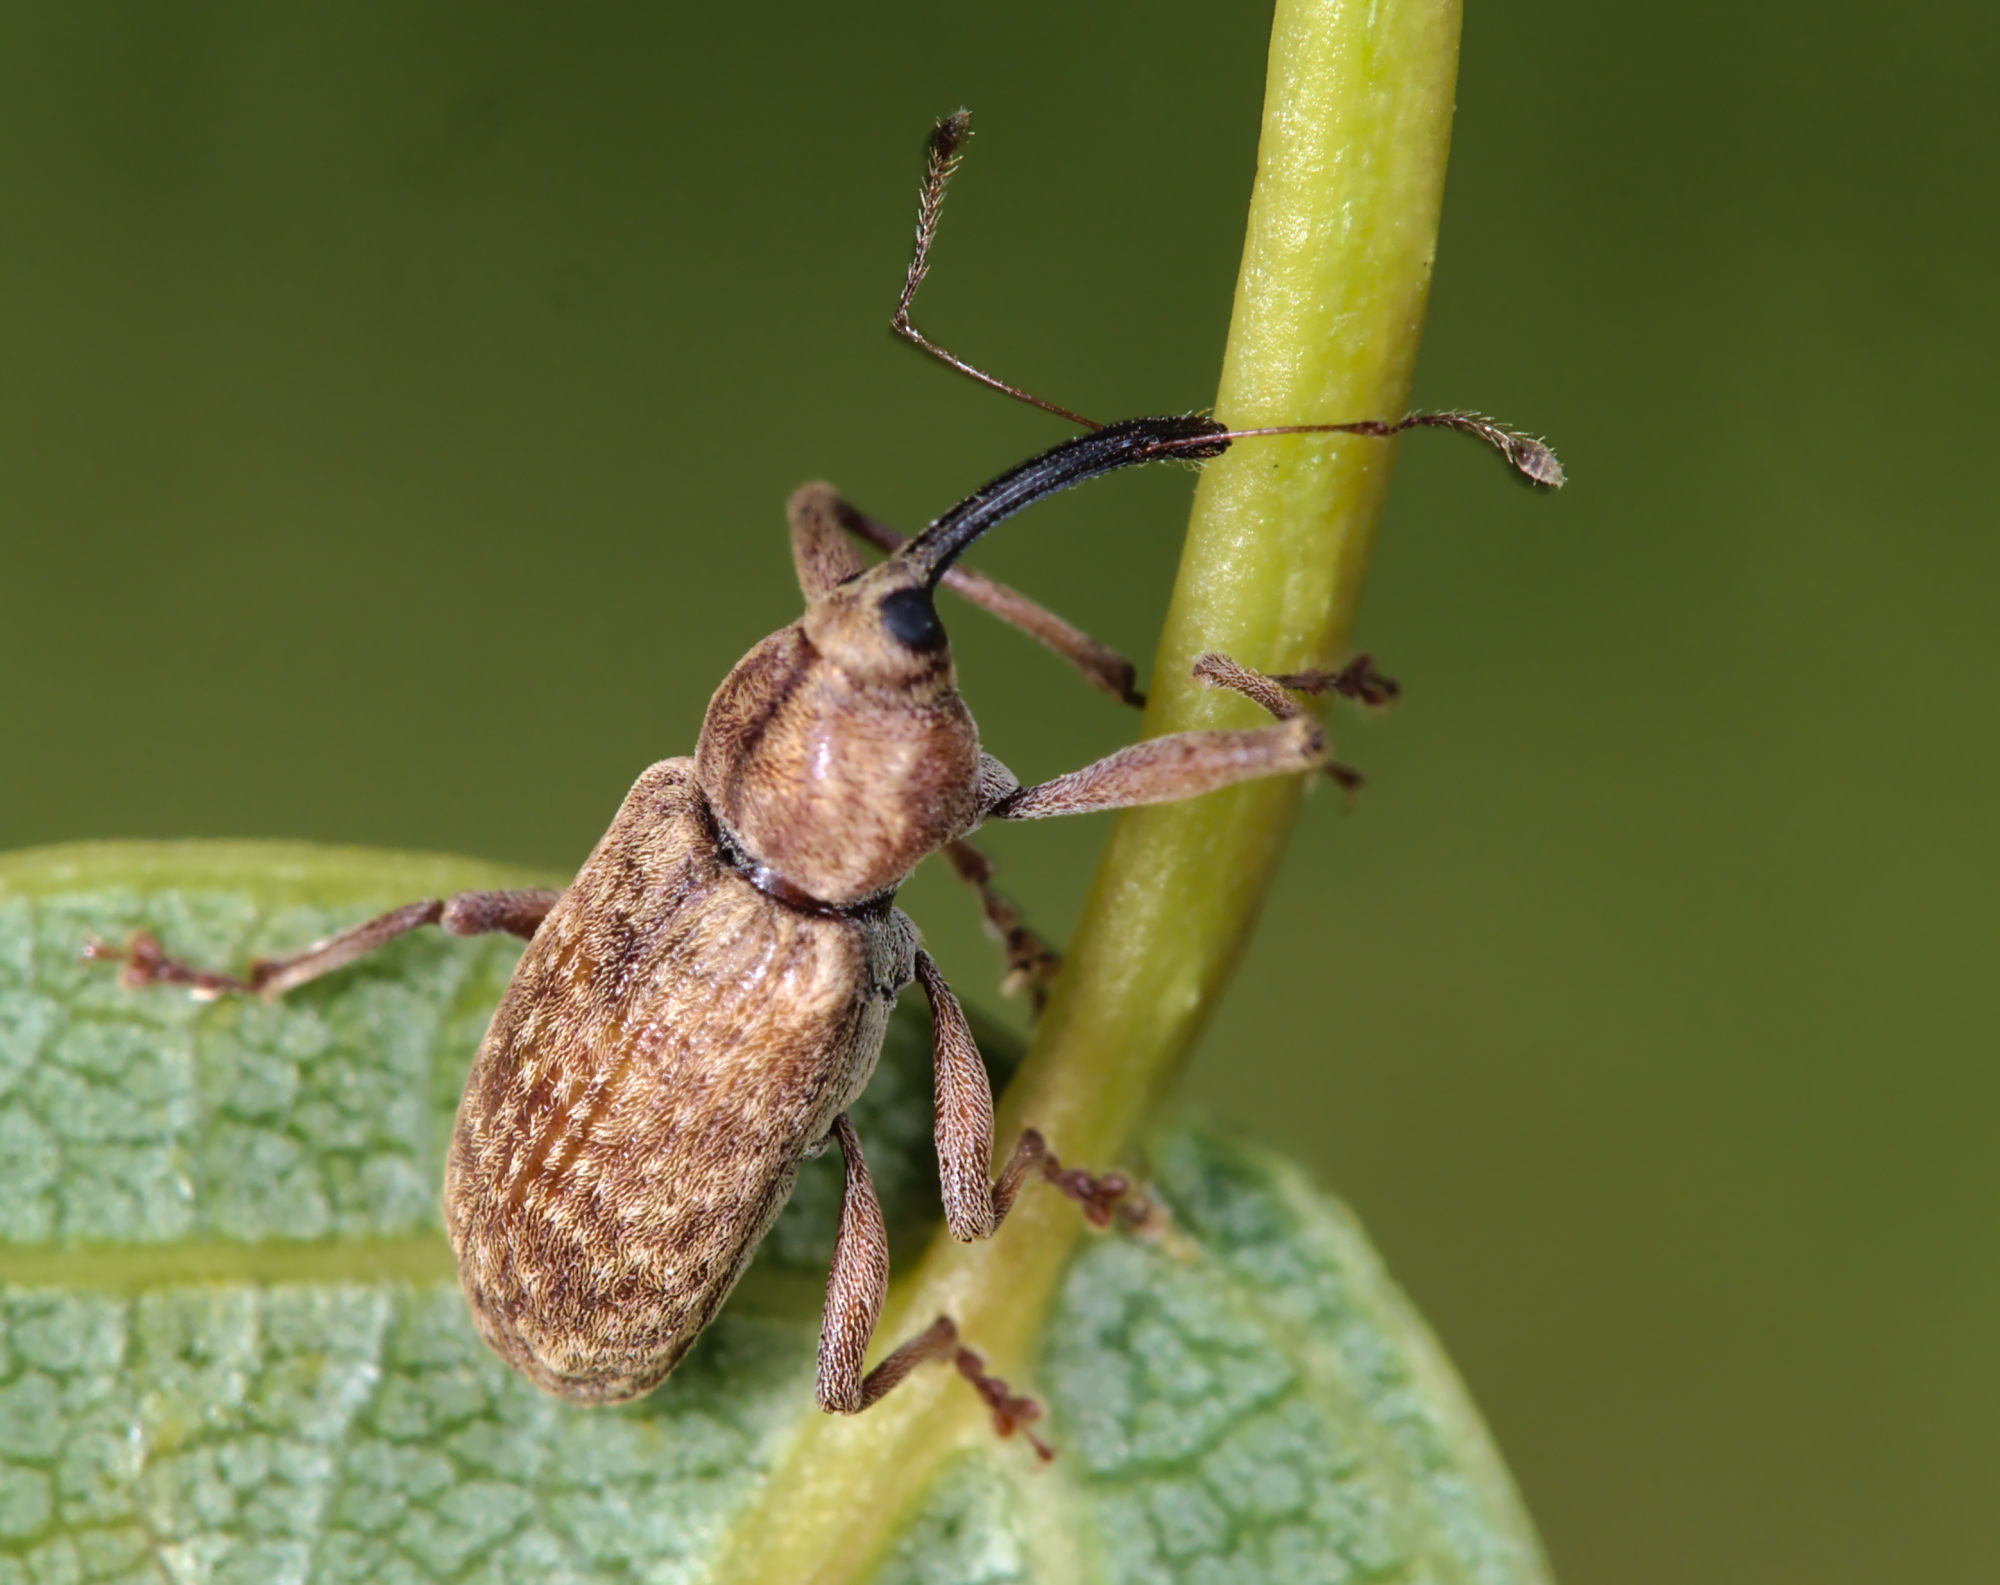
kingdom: Animalia
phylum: Arthropoda
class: Insecta
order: Coleoptera
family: Curculionidae
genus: Dorytomus
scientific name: Dorytomus longimanus
